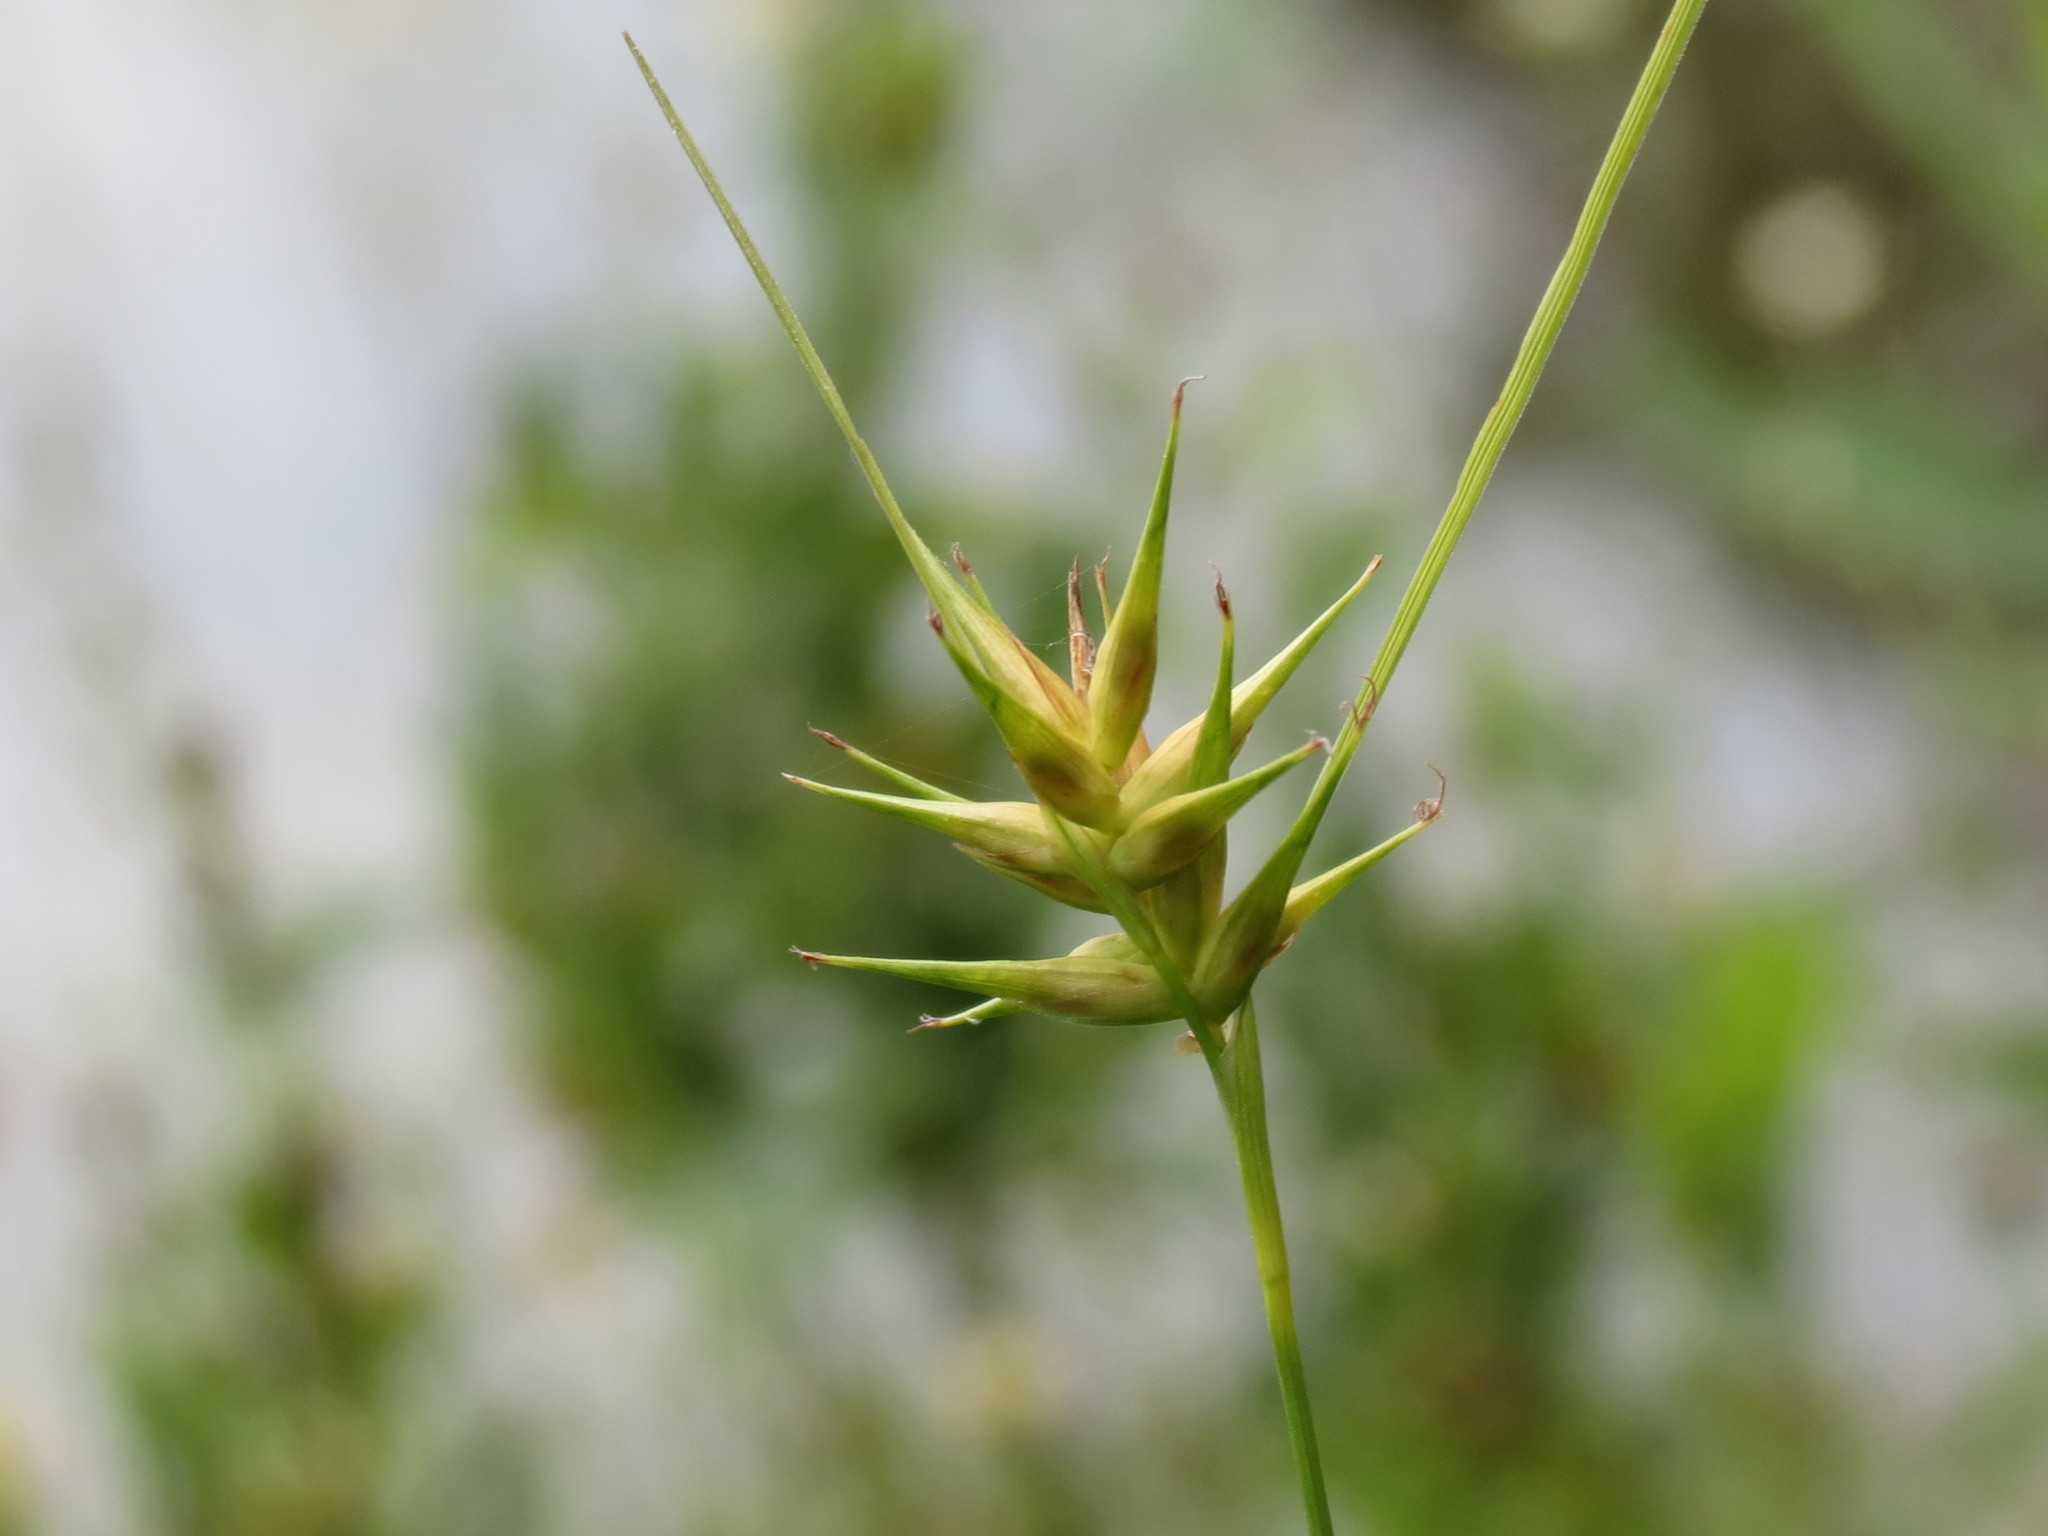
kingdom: Plantae
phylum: Tracheophyta
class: Liliopsida
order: Poales
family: Cyperaceae
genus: Carex
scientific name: Carex michauxiana
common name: Michaux's sedge
